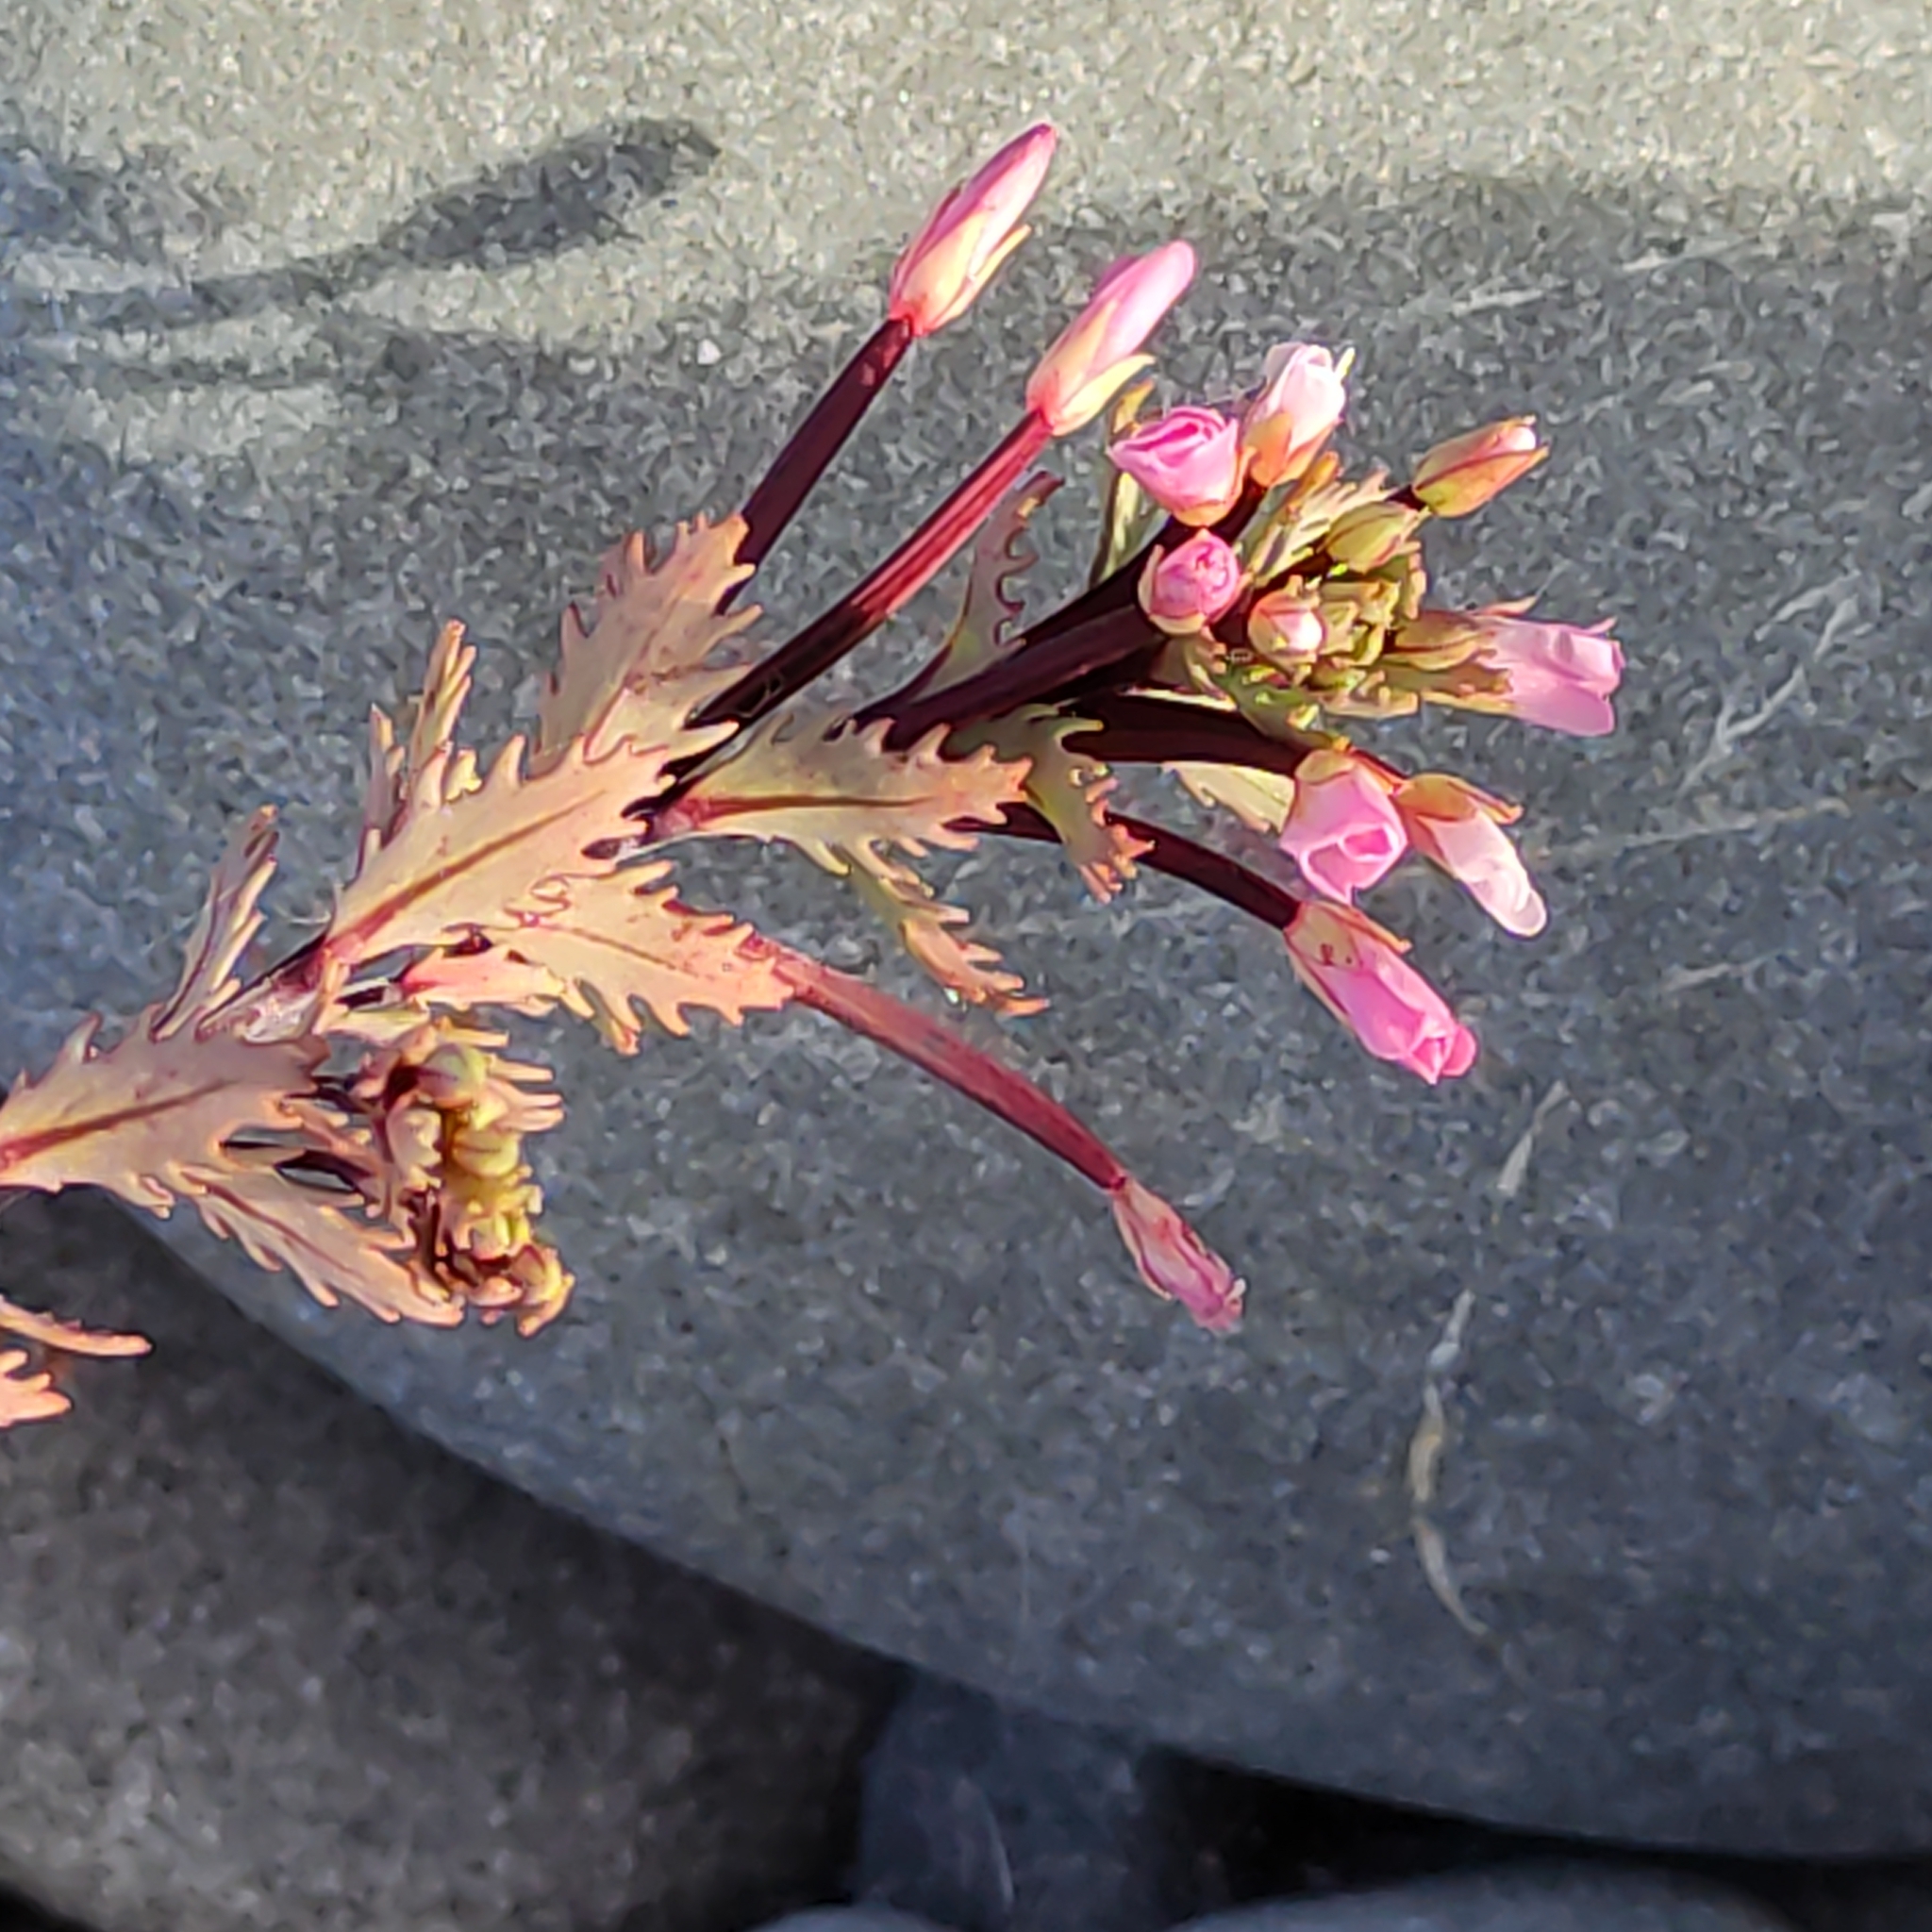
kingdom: Plantae
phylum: Tracheophyta
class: Magnoliopsida
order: Myrtales
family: Onagraceae
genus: Epilobium
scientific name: Epilobium melanocaulon
